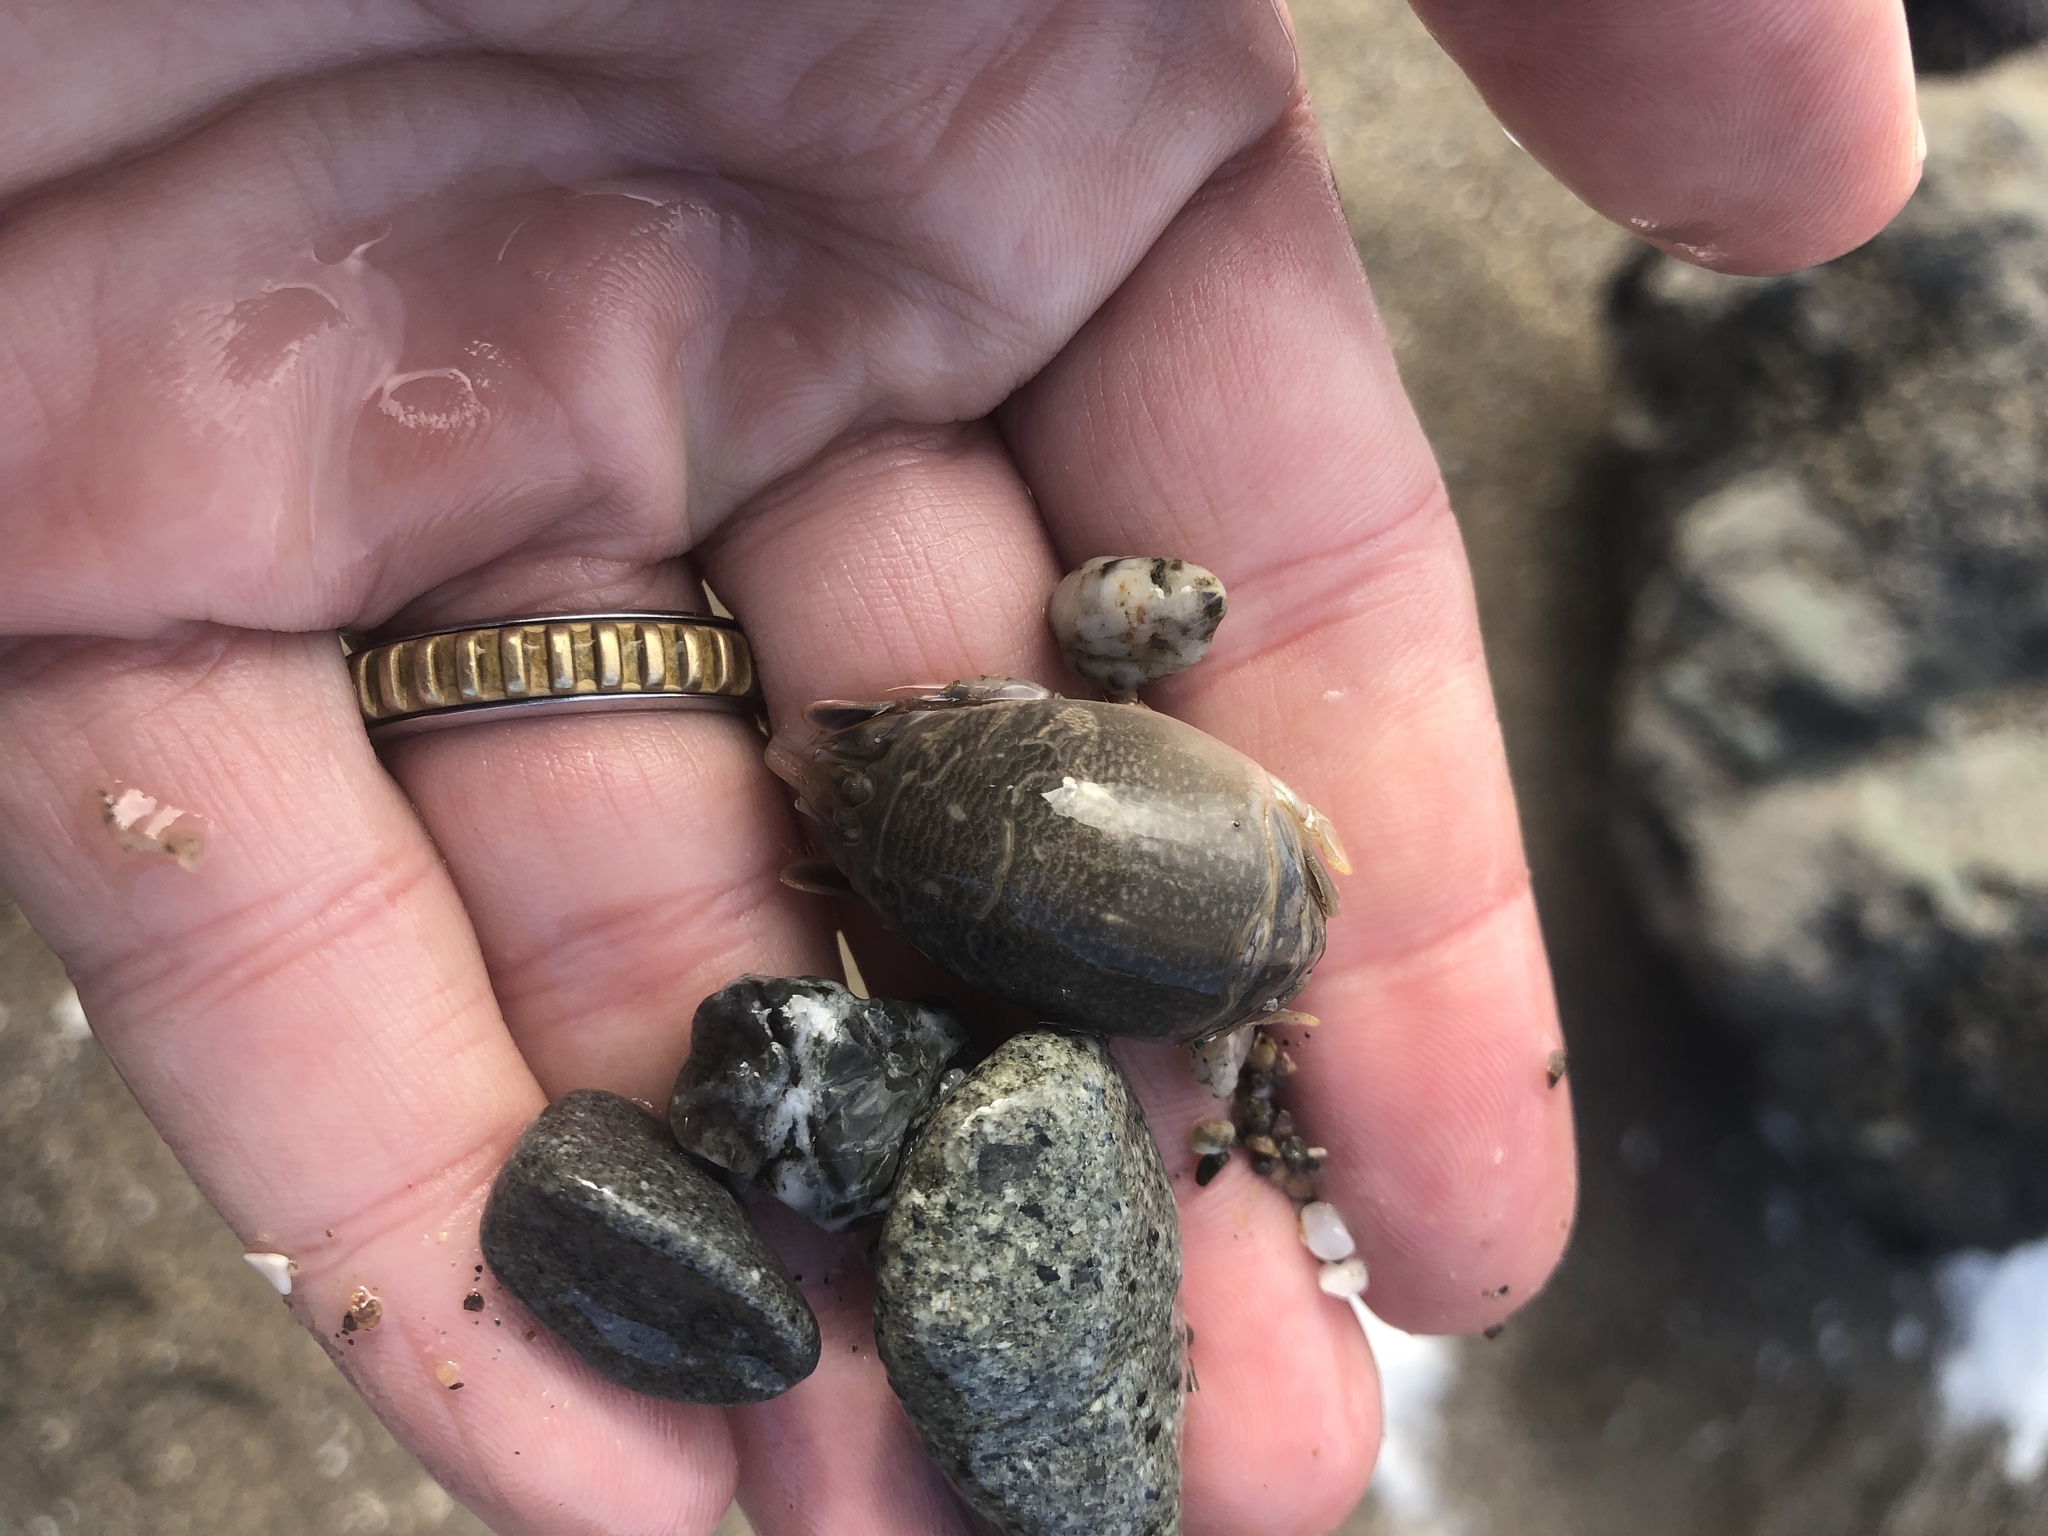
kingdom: Animalia
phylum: Arthropoda
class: Malacostraca
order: Decapoda
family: Hippidae
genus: Emerita
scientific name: Emerita analoga
